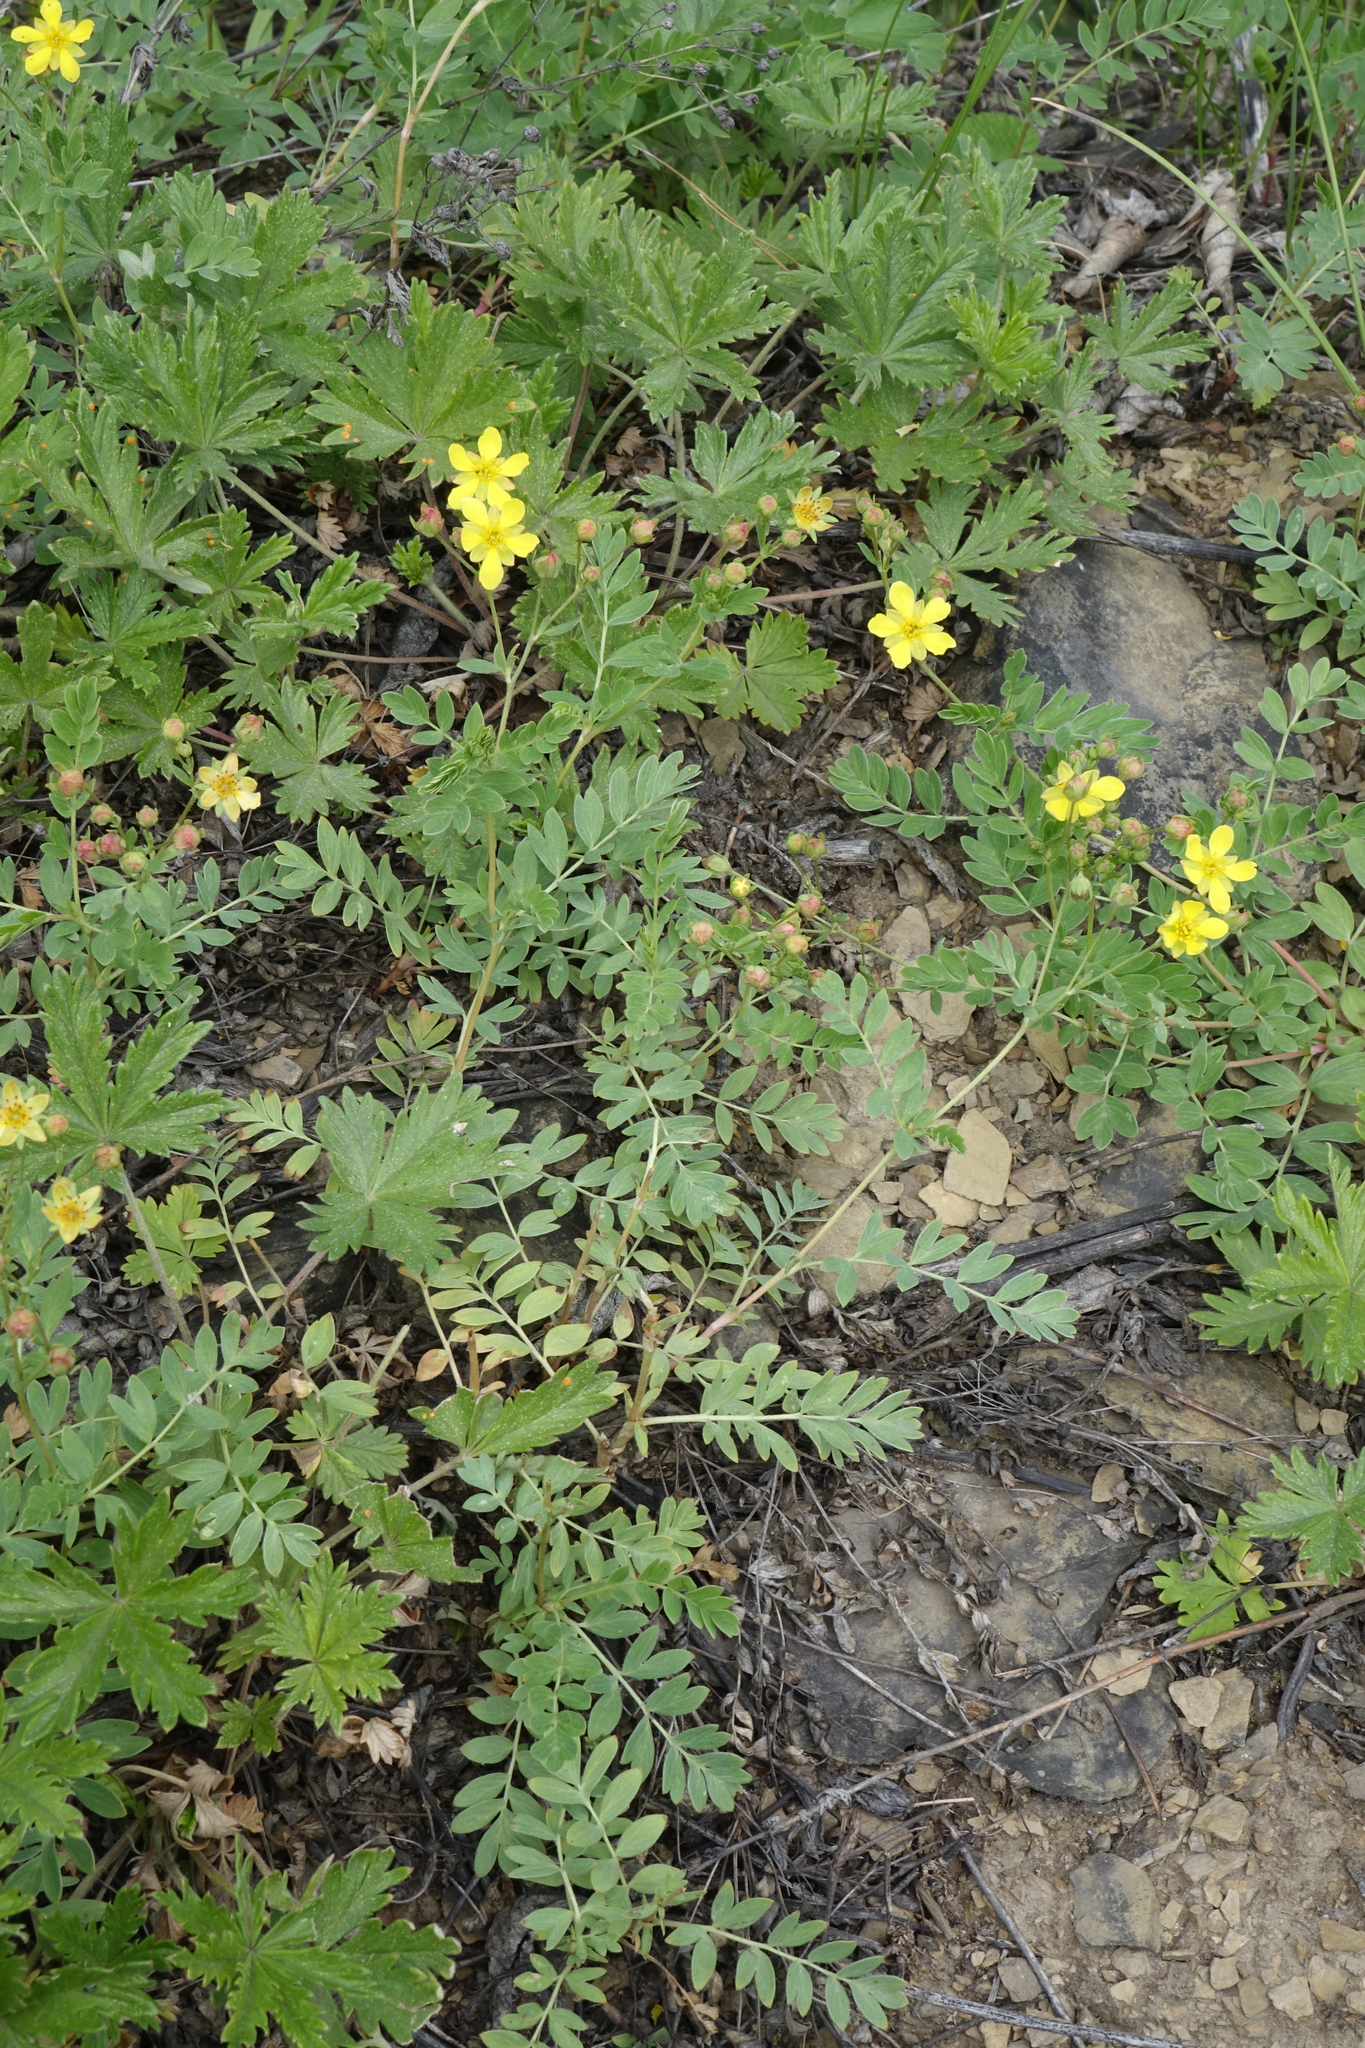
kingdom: Plantae
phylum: Tracheophyta
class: Magnoliopsida
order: Rosales
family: Rosaceae
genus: Sibbaldianthe
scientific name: Sibbaldianthe bifurca
